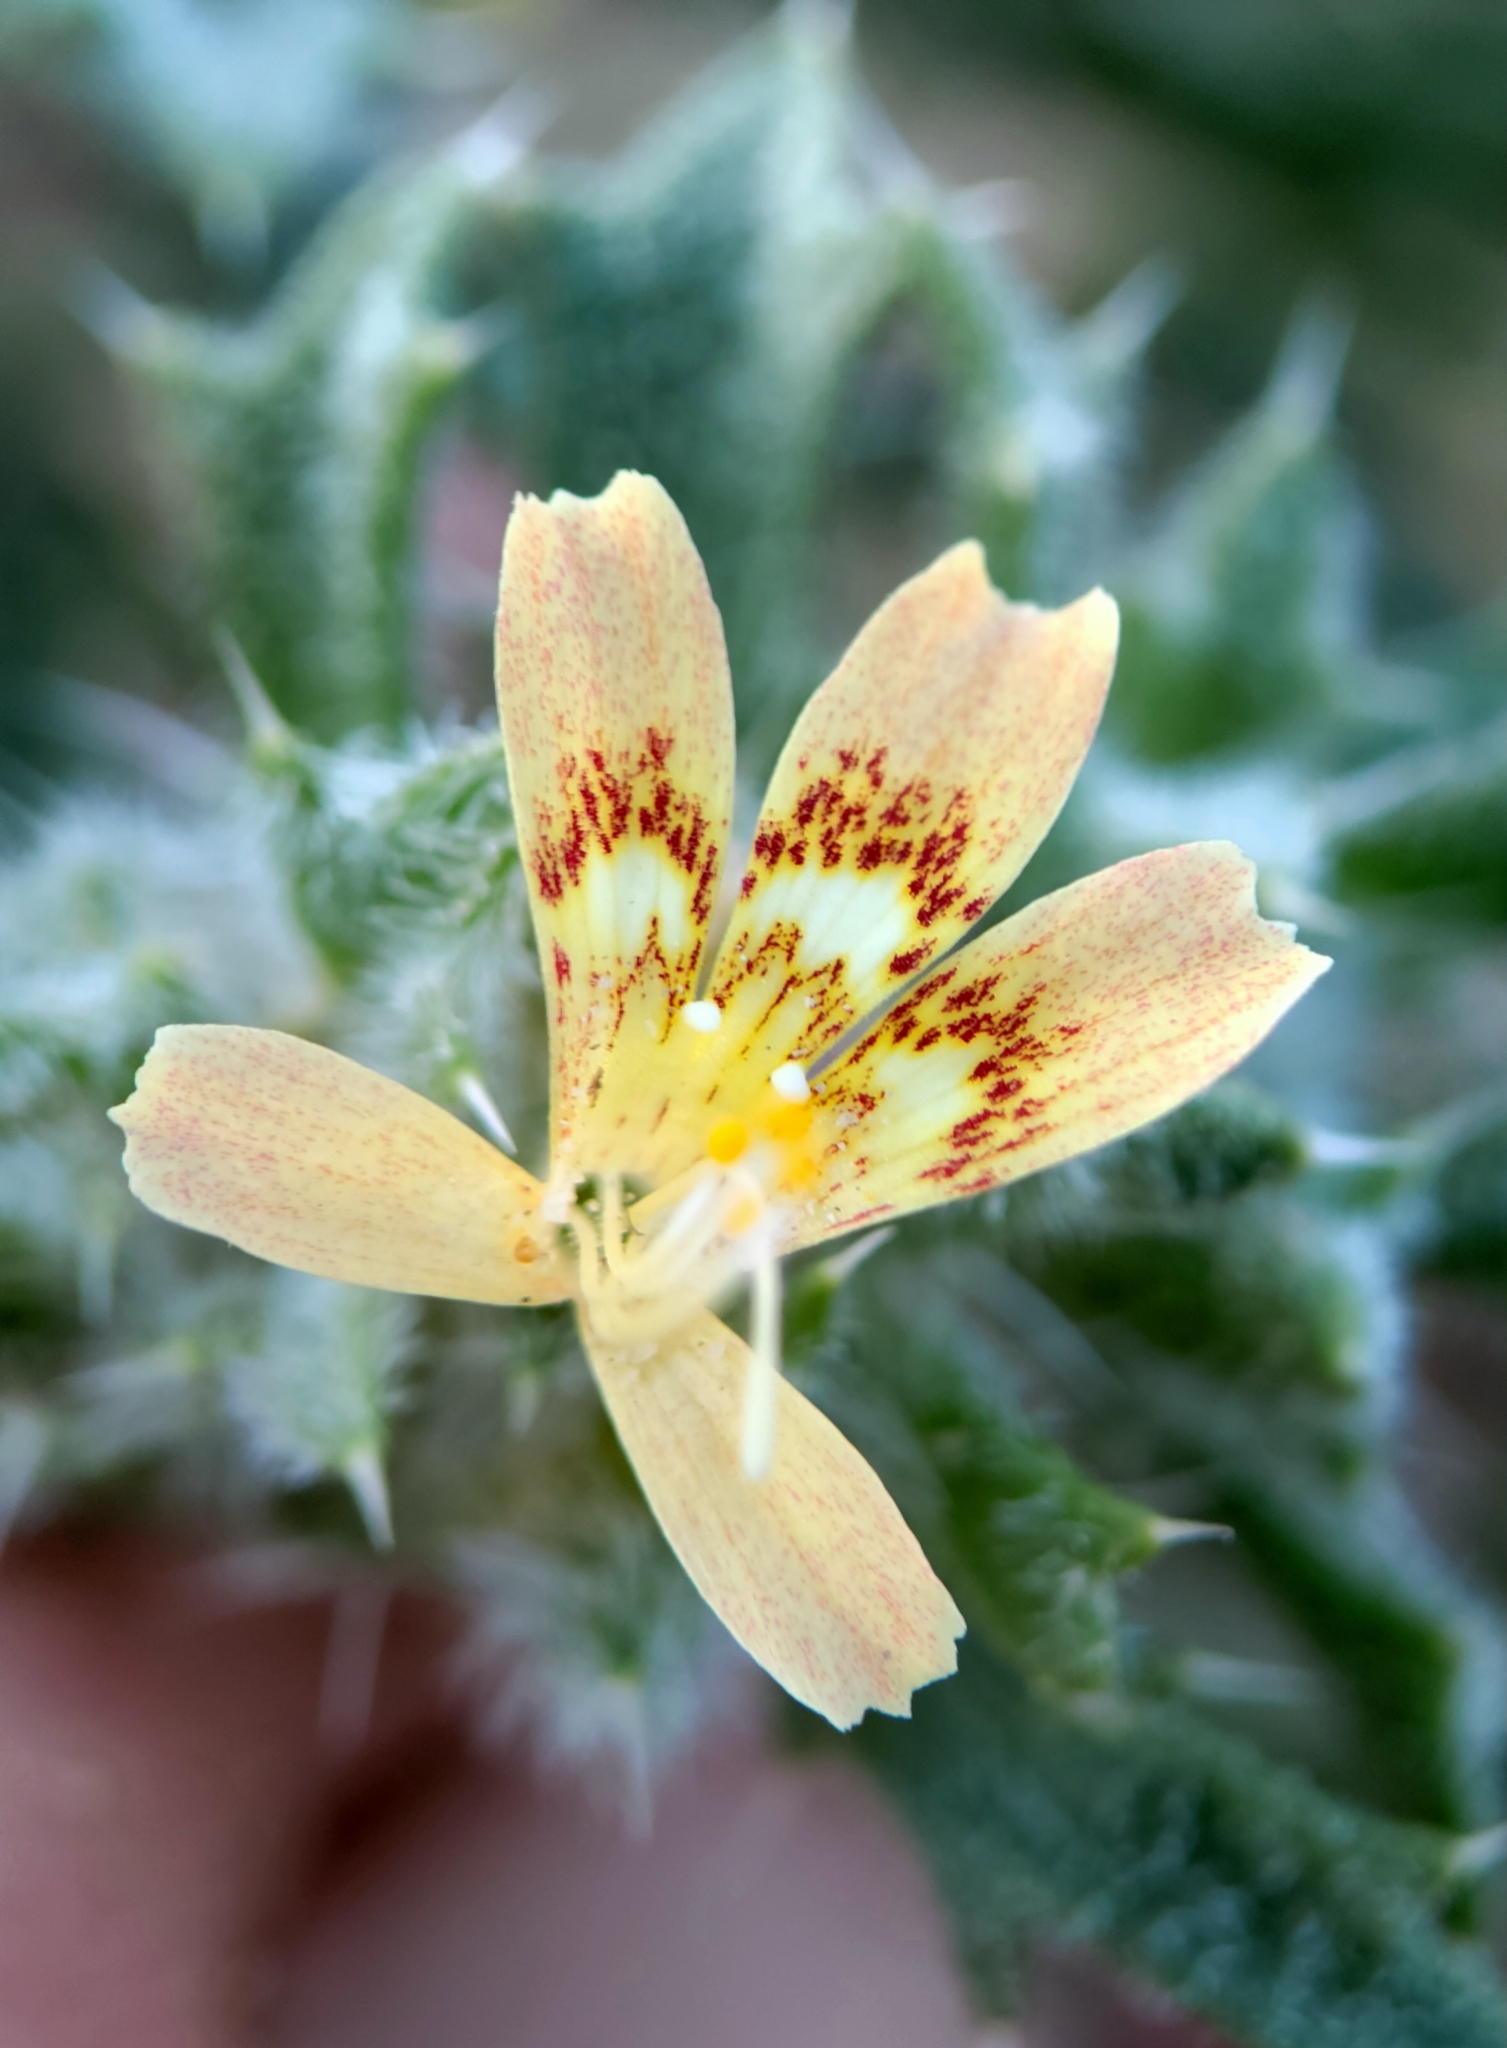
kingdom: Plantae
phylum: Tracheophyta
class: Magnoliopsida
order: Ericales
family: Polemoniaceae
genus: Loeseliastrum
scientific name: Loeseliastrum matthewsii
